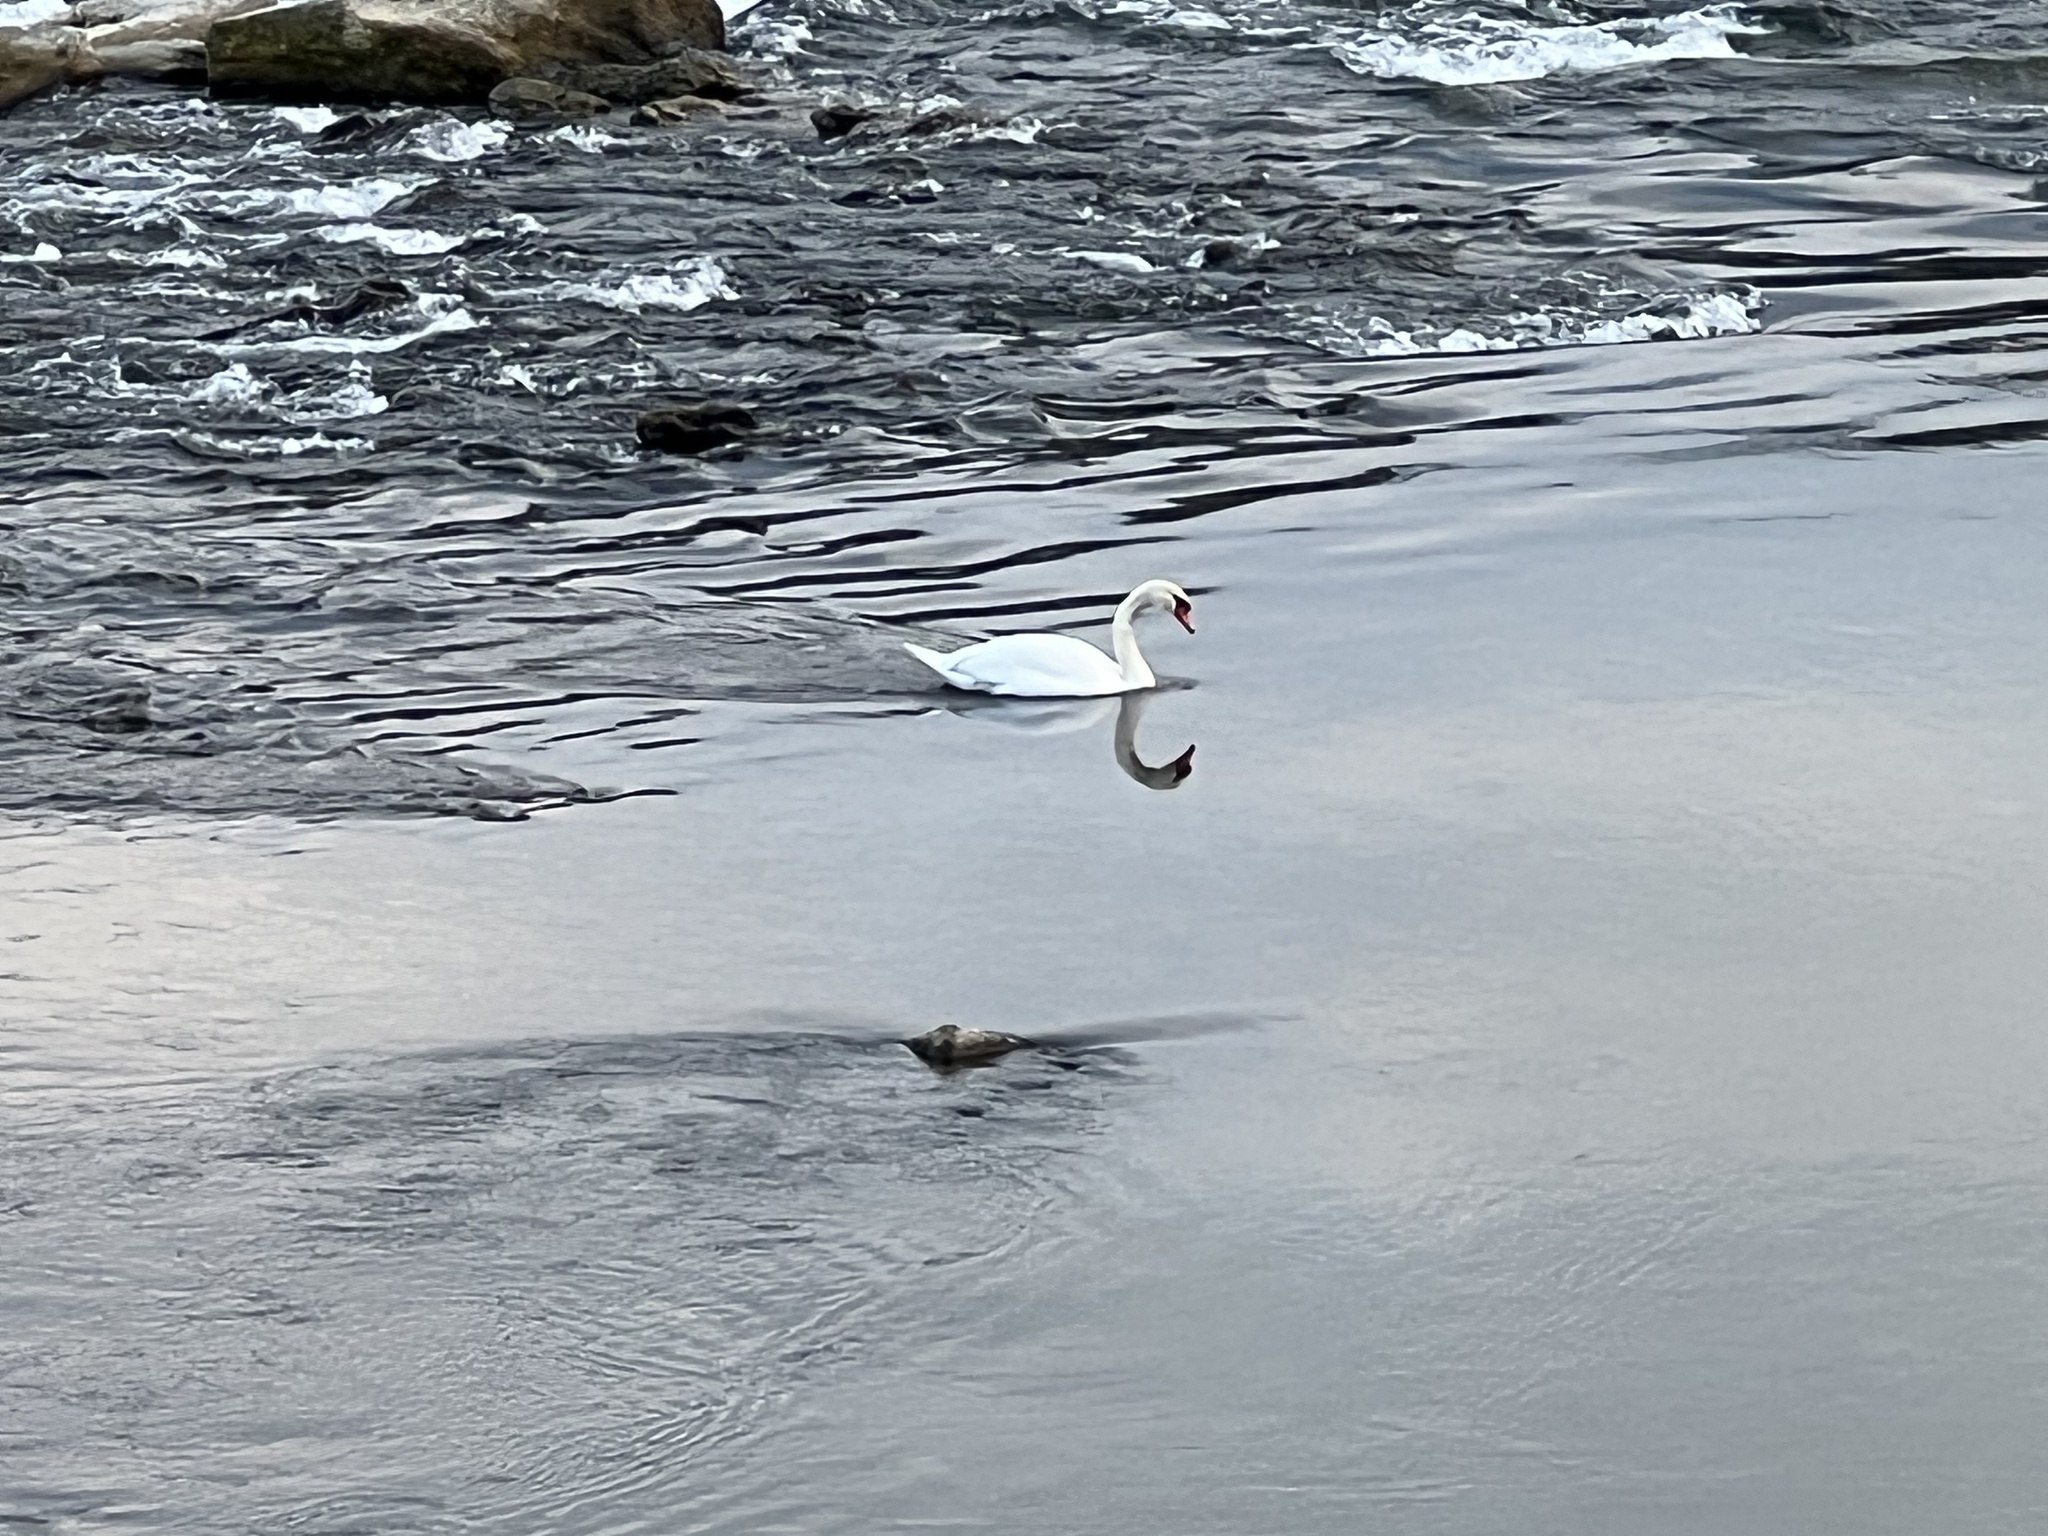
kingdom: Animalia
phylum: Chordata
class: Aves
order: Anseriformes
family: Anatidae
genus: Cygnus
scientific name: Cygnus olor
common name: Mute swan
